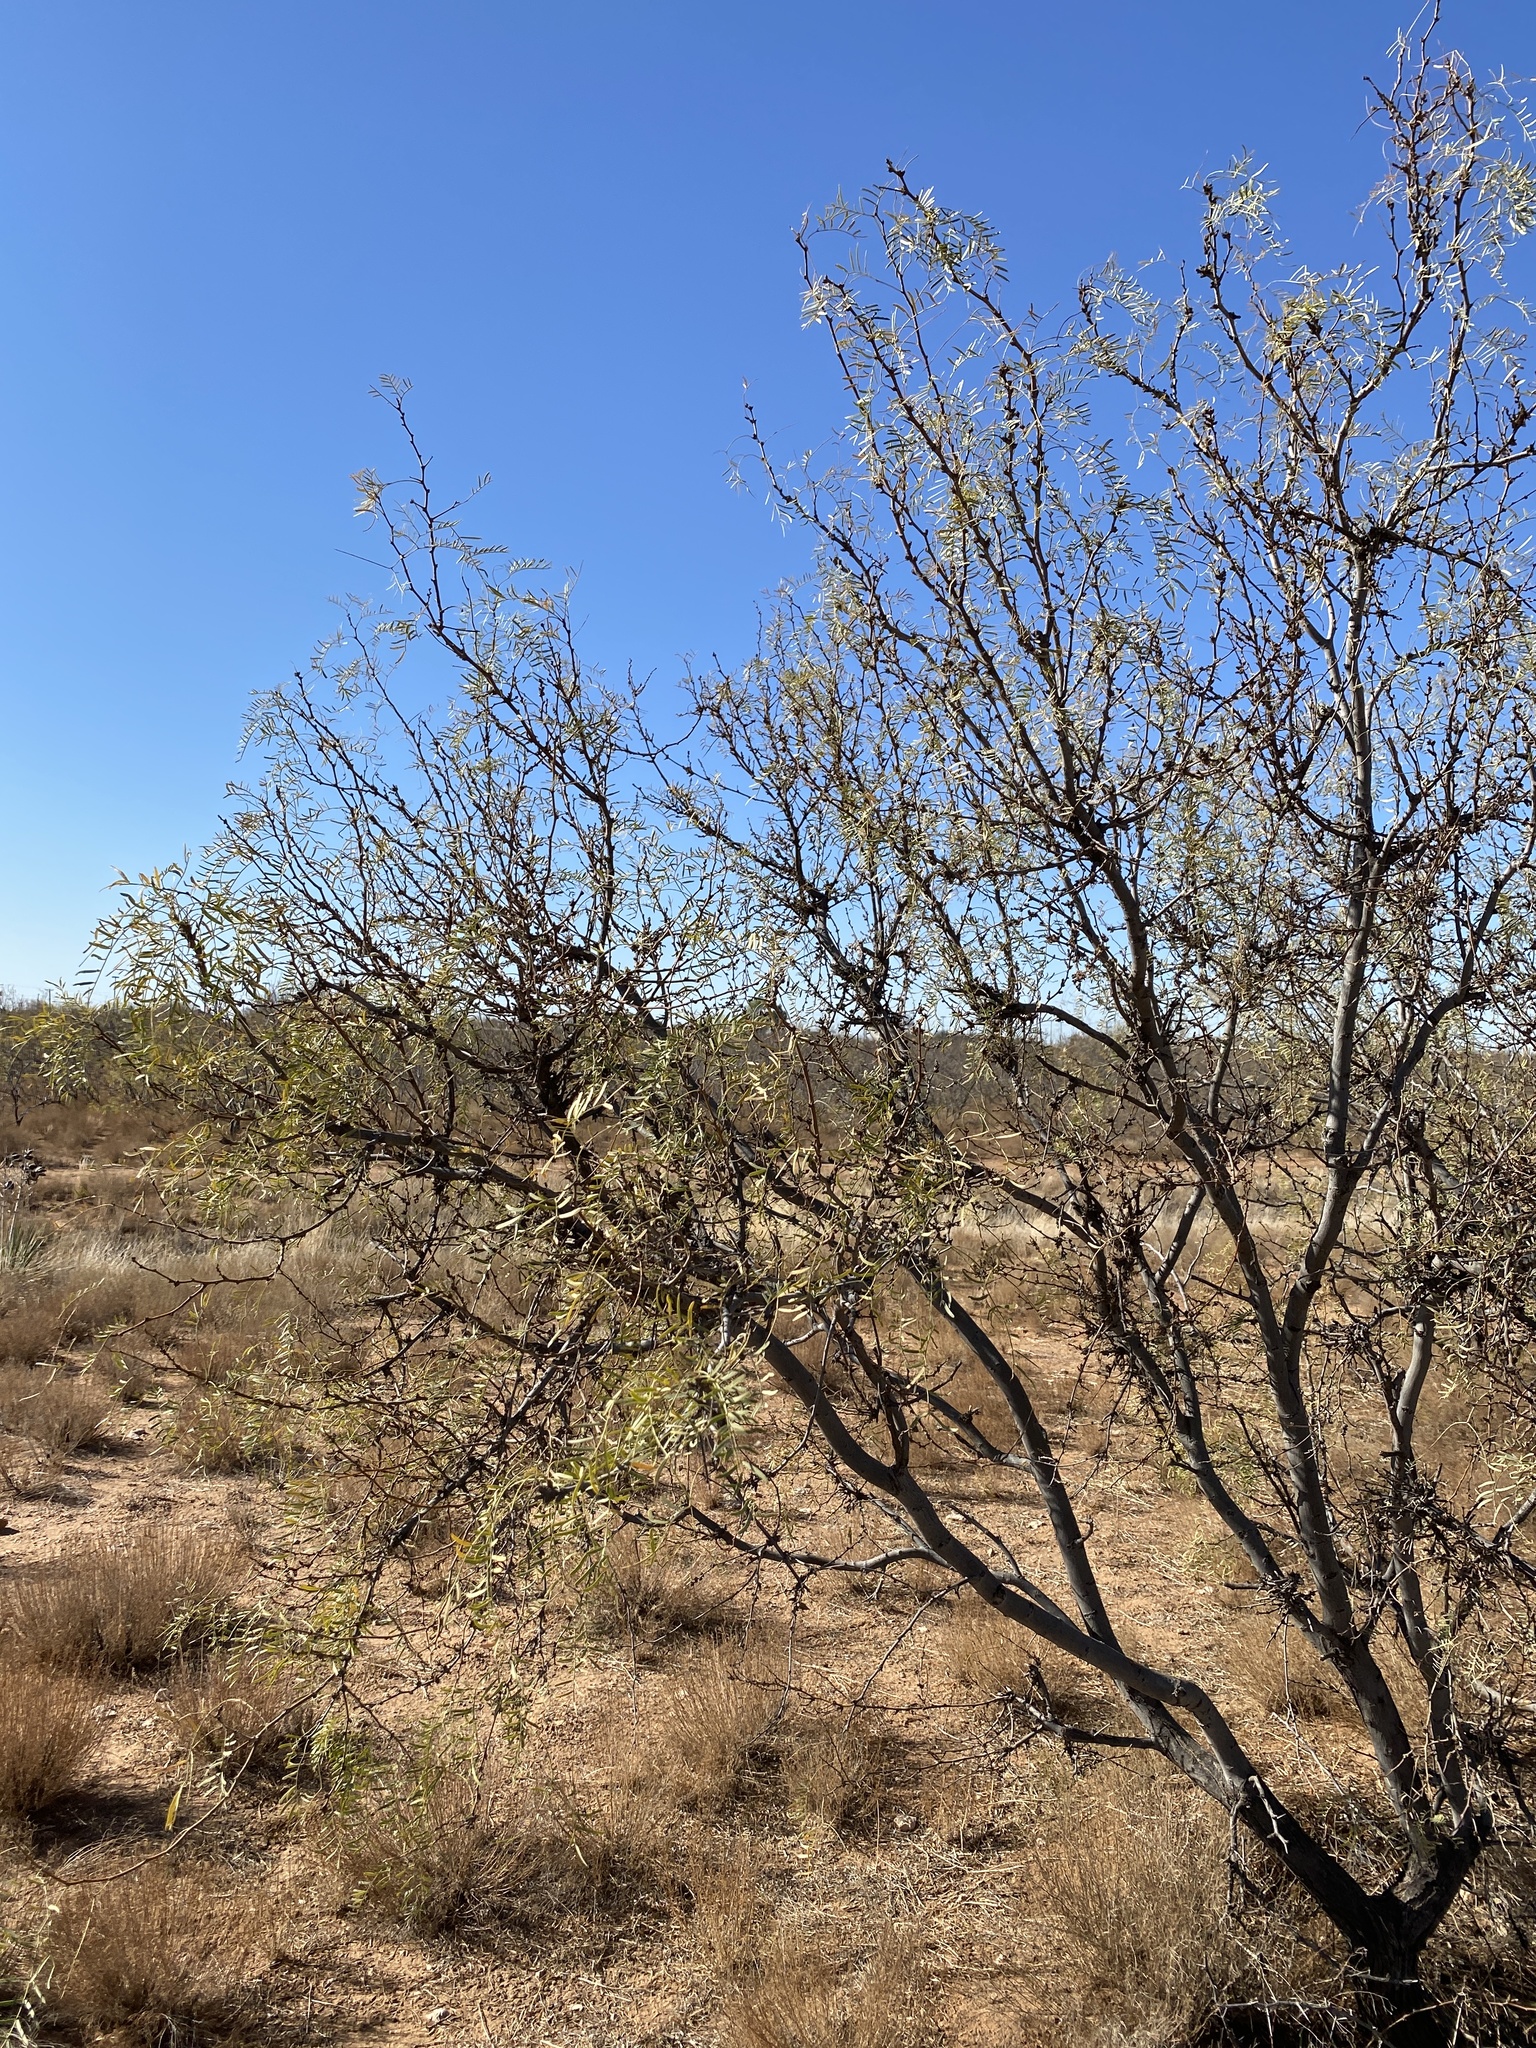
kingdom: Plantae
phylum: Tracheophyta
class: Magnoliopsida
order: Fabales
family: Fabaceae
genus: Prosopis
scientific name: Prosopis glandulosa
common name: Honey mesquite
